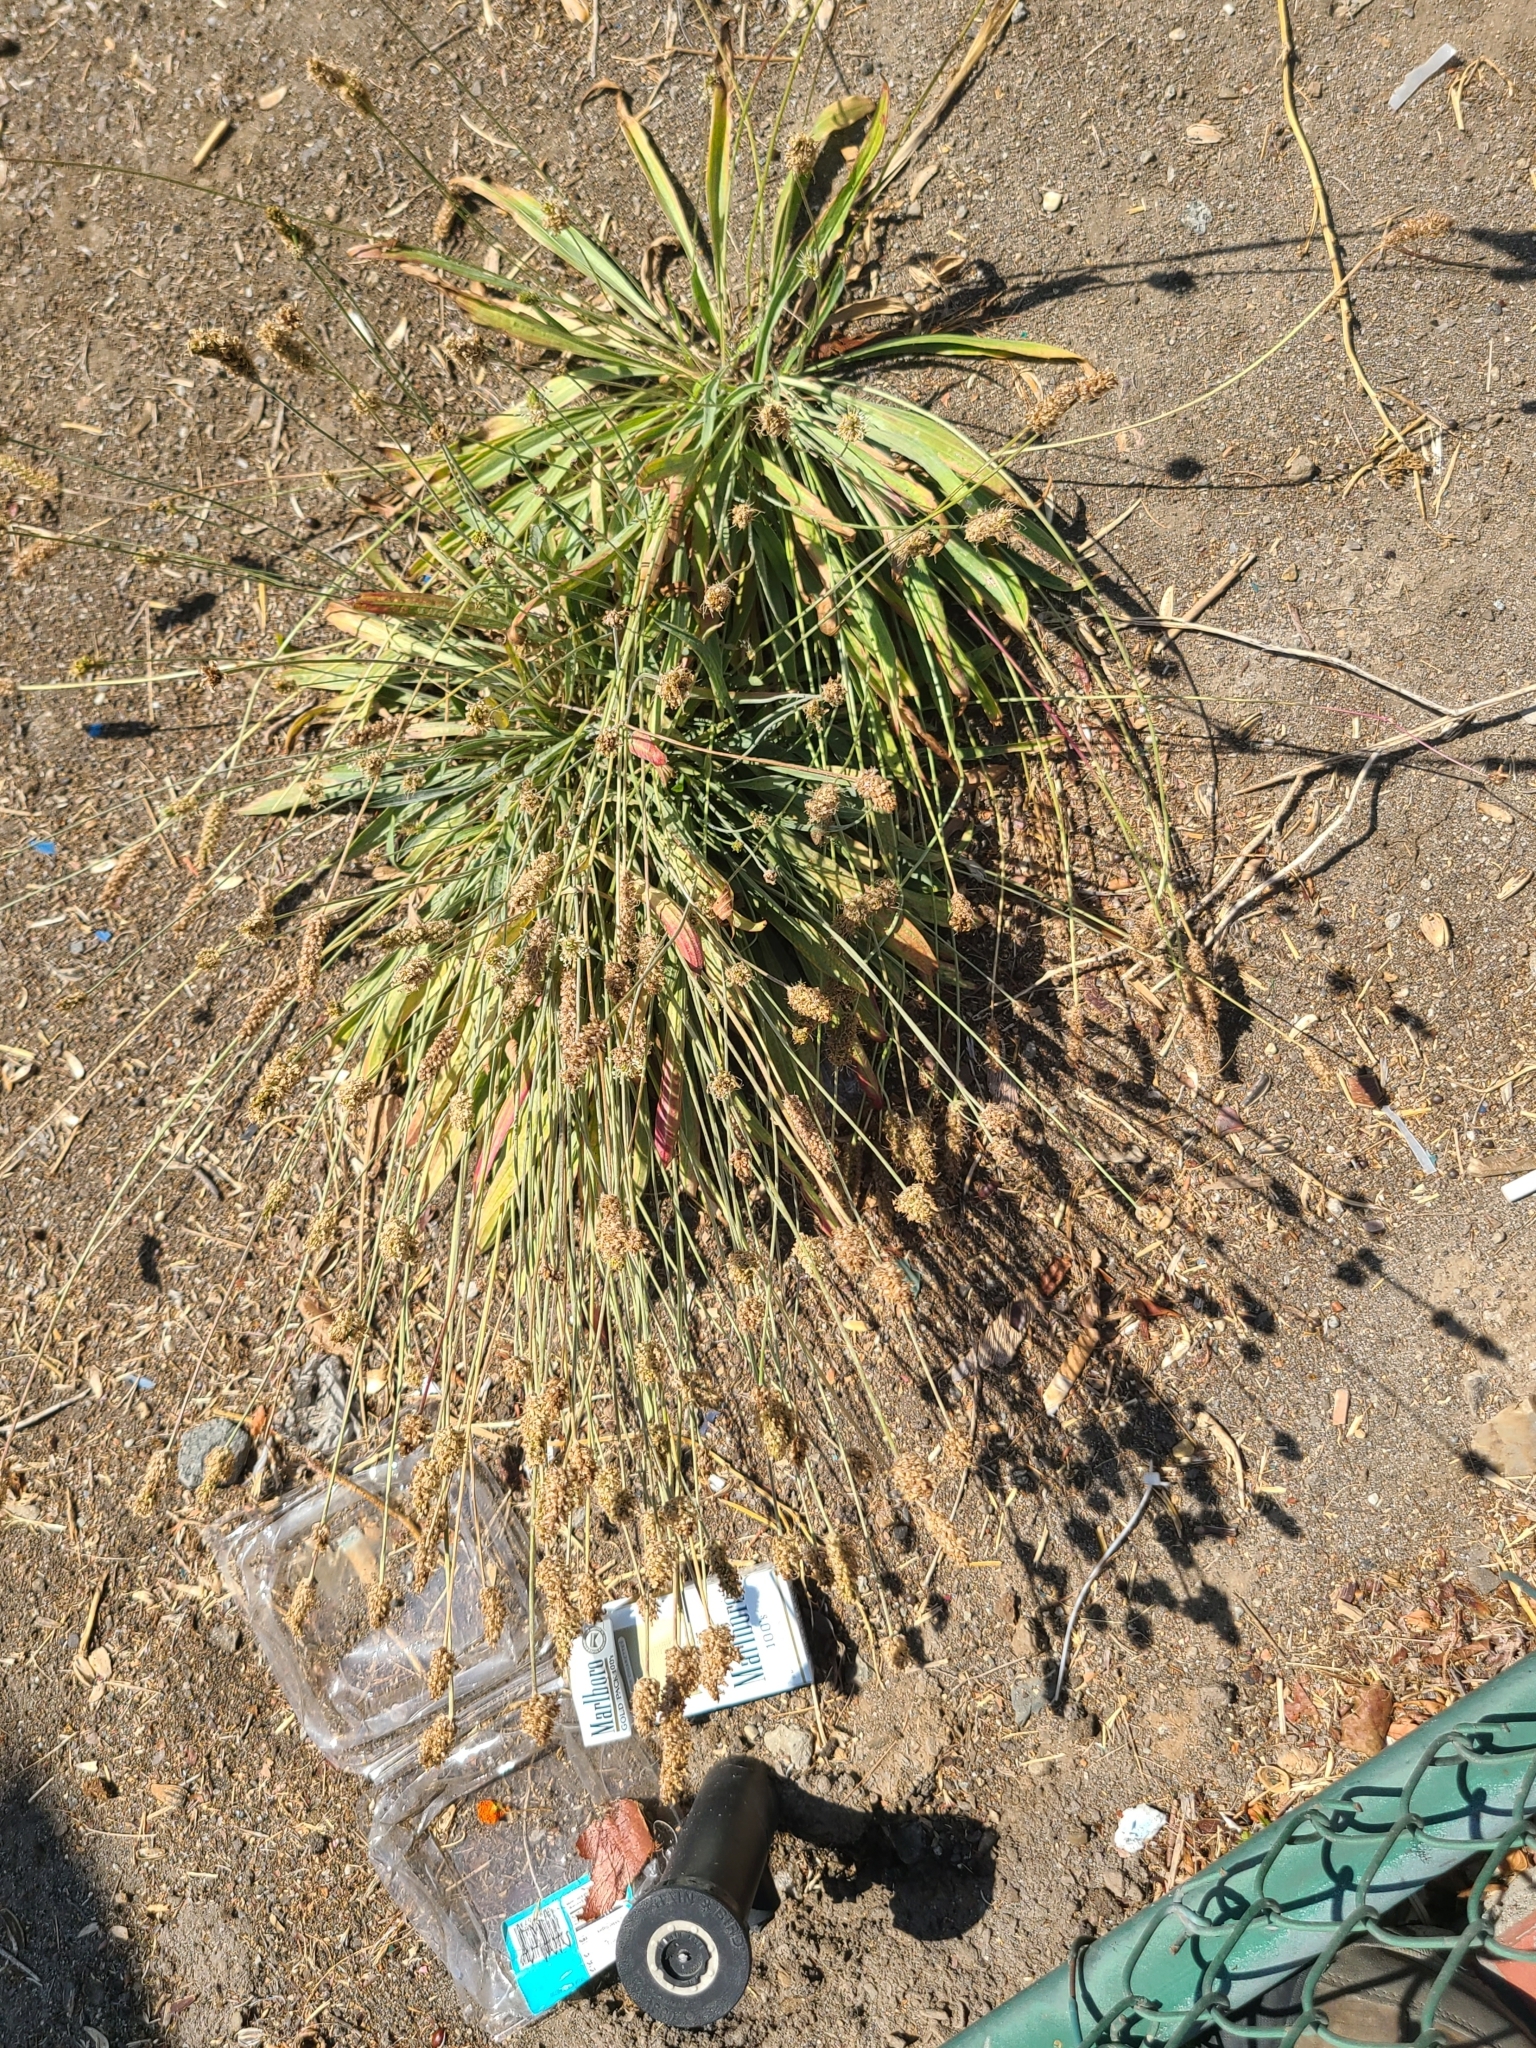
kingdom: Plantae
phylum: Tracheophyta
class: Magnoliopsida
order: Lamiales
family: Plantaginaceae
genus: Plantago
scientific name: Plantago lanceolata
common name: Ribwort plantain
